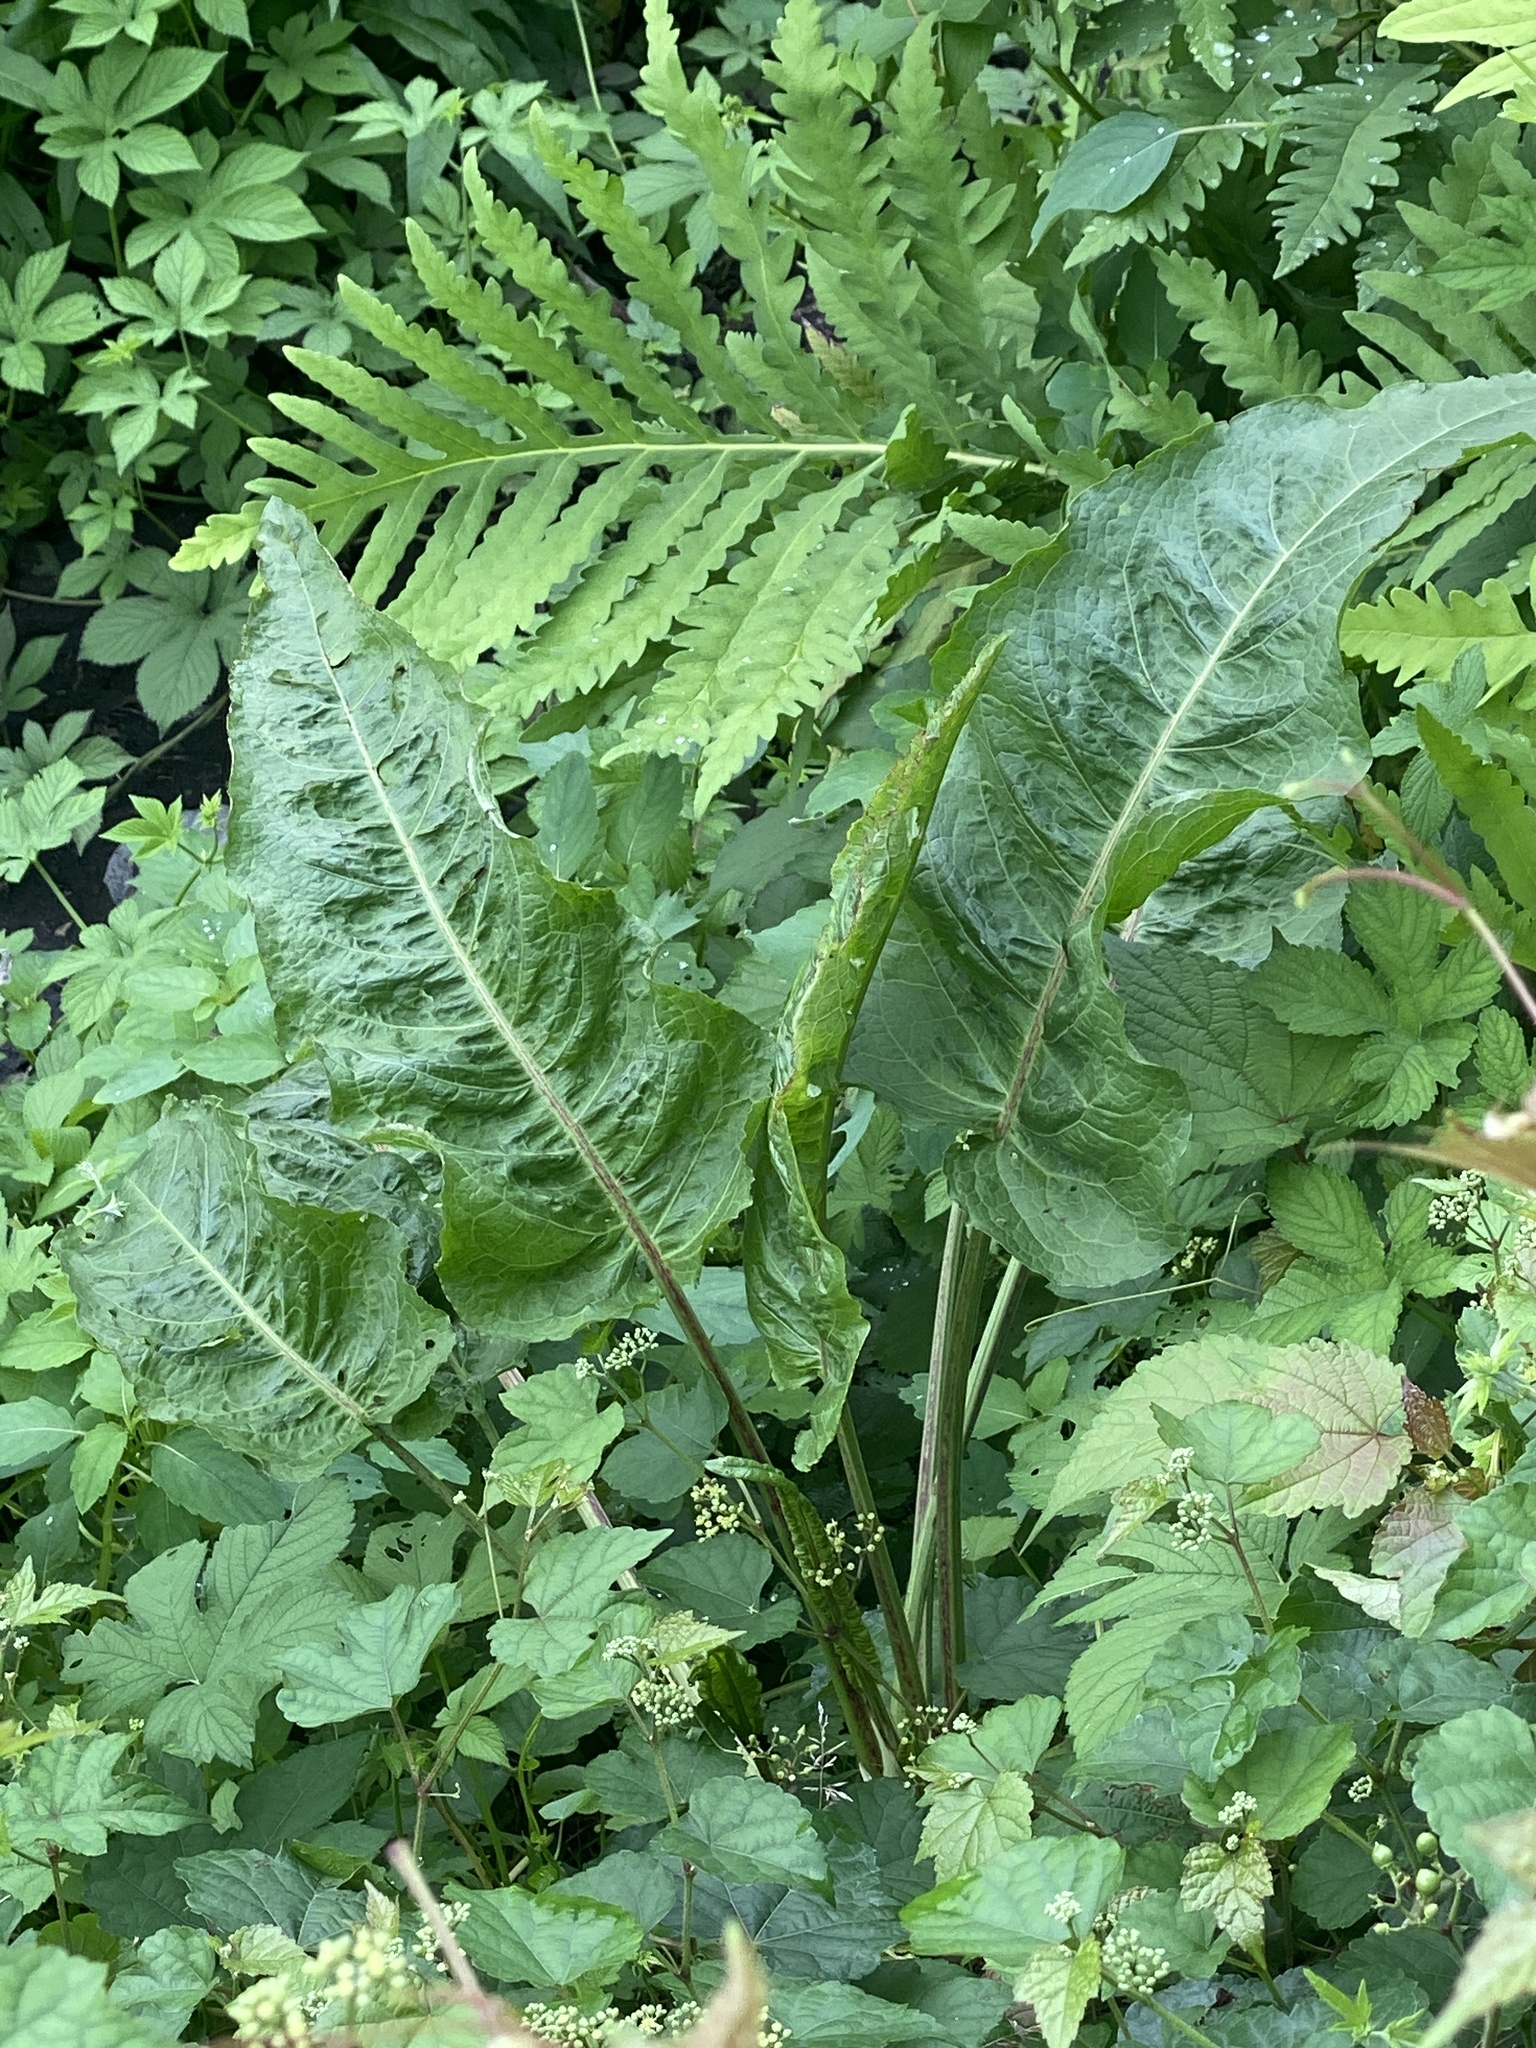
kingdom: Plantae
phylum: Tracheophyta
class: Magnoliopsida
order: Caryophyllales
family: Polygonaceae
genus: Rumex
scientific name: Rumex obtusifolius
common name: Bitter dock
